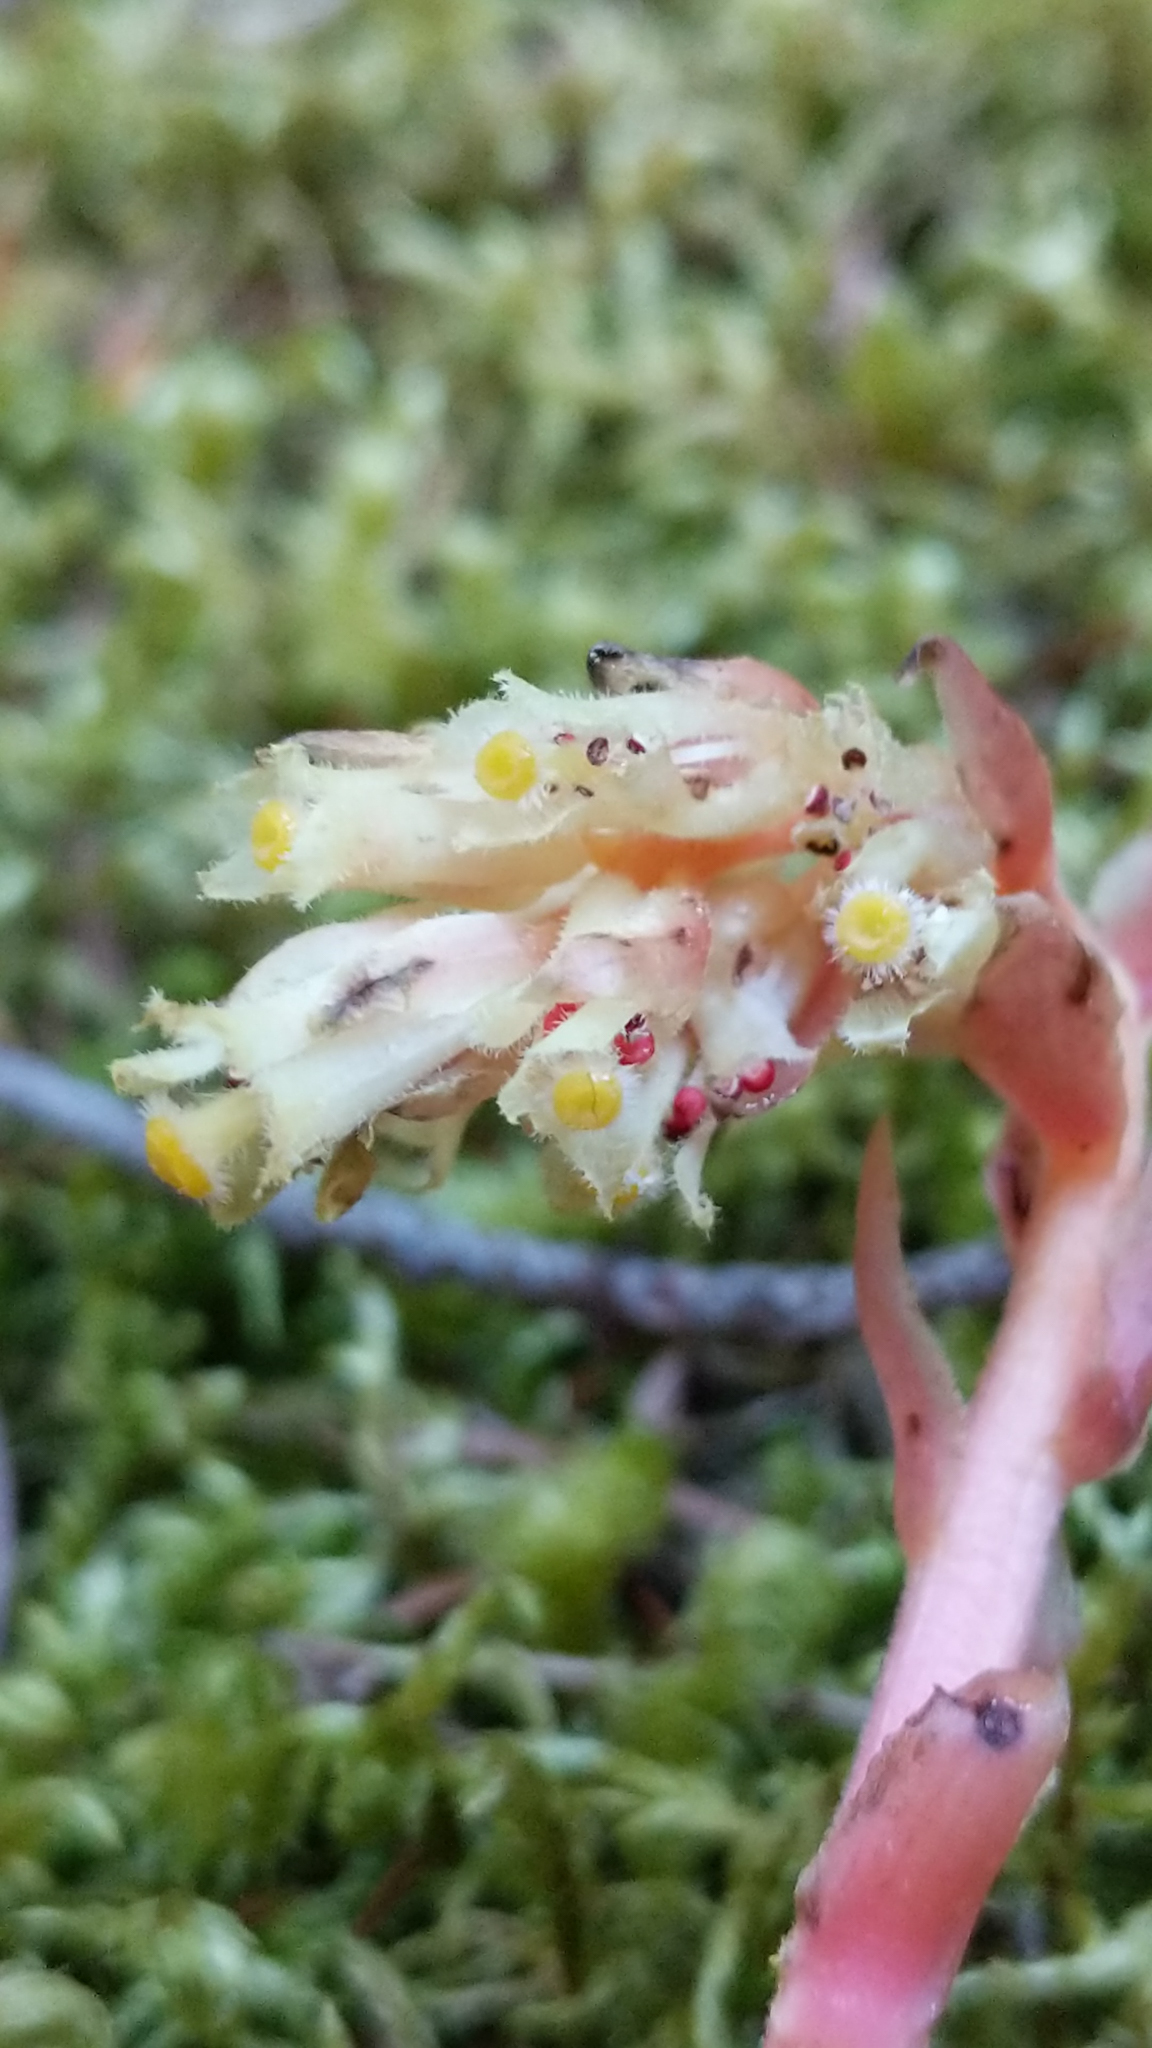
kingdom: Plantae
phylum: Tracheophyta
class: Magnoliopsida
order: Ericales
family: Ericaceae
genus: Hypopitys
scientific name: Hypopitys monotropa
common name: Yellow bird's-nest
